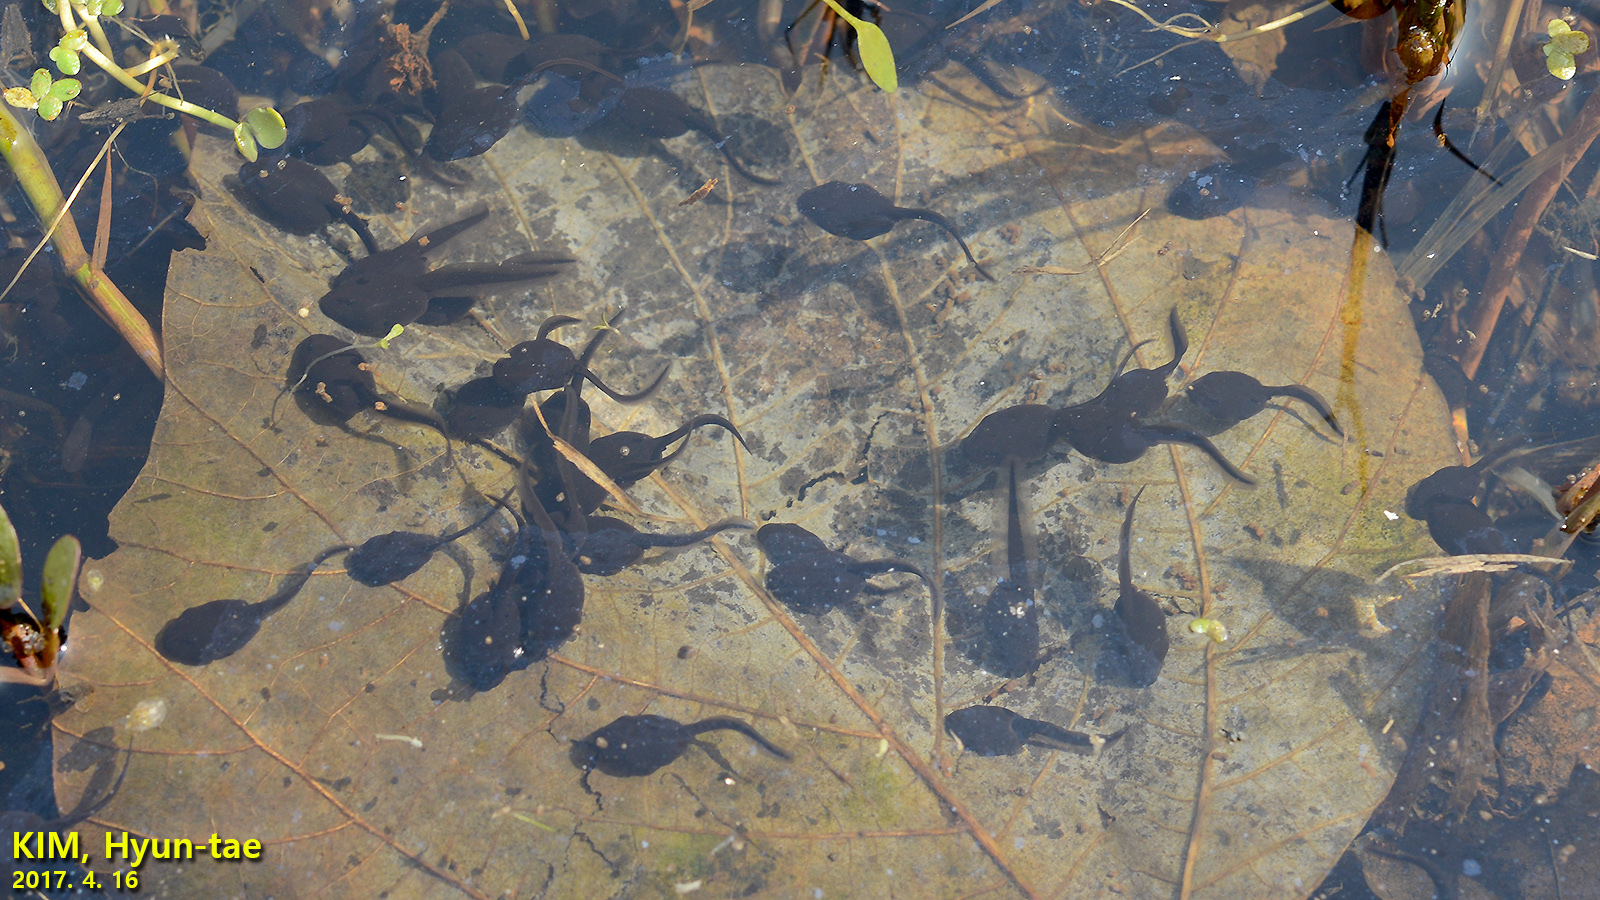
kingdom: Animalia
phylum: Chordata
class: Amphibia
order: Anura
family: Bufonidae
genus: Bufo
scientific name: Bufo gargarizans
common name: Asiatic toad
